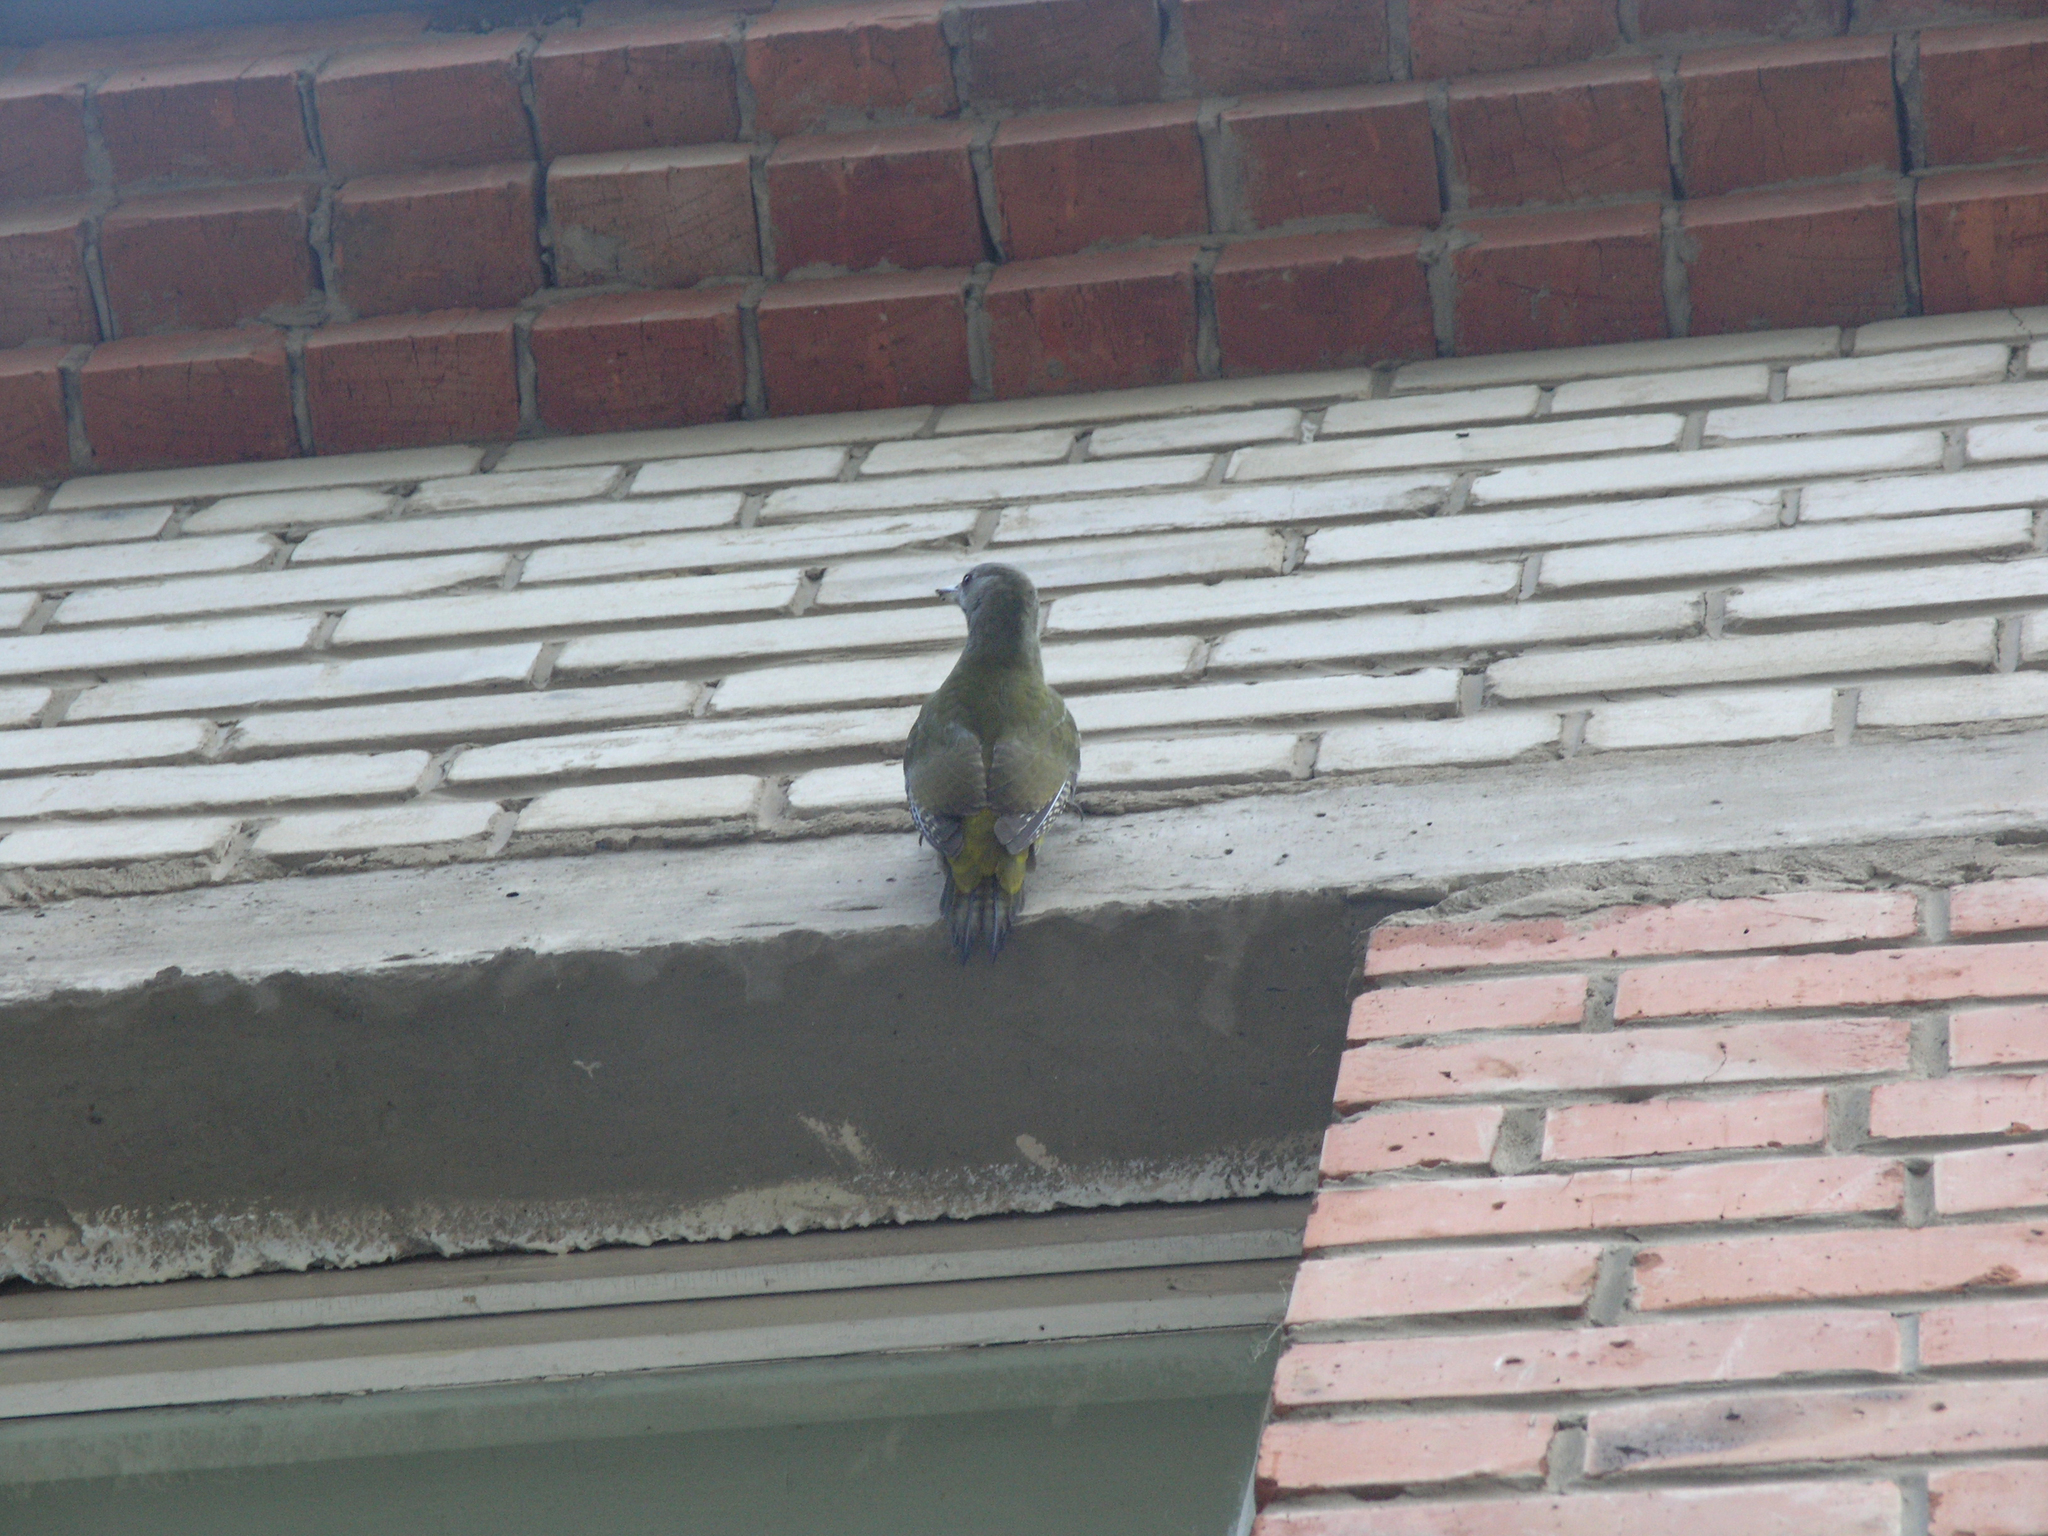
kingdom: Animalia
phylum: Chordata
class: Aves
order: Piciformes
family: Picidae
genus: Picus
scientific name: Picus canus
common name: Grey-headed woodpecker
